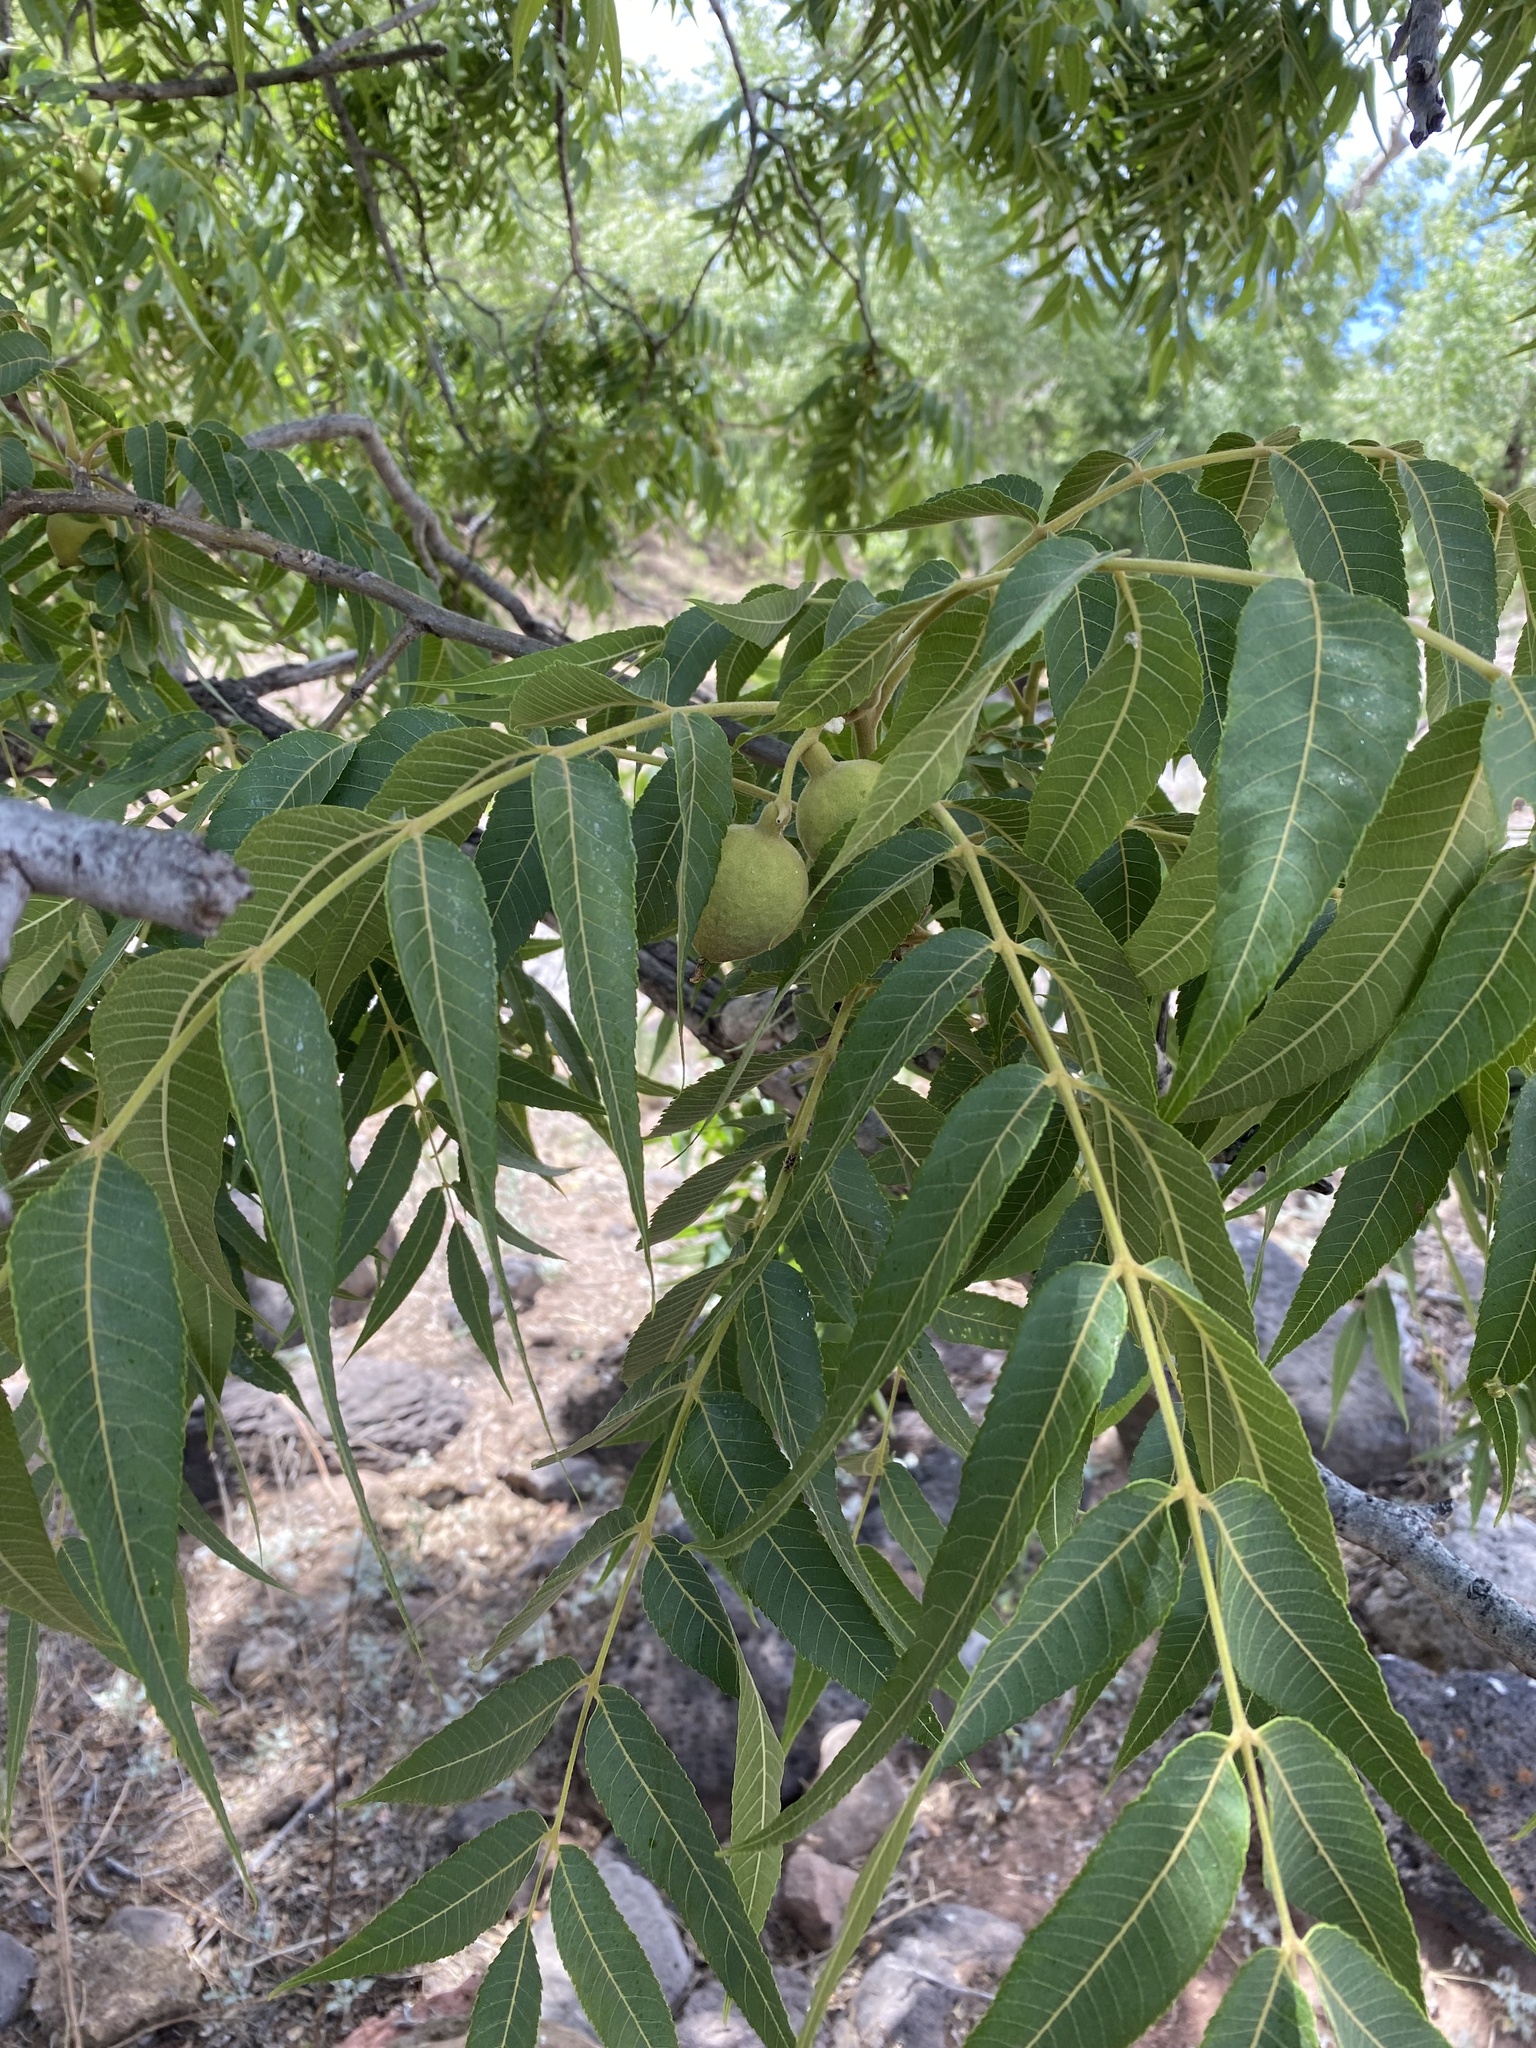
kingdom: Plantae
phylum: Tracheophyta
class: Magnoliopsida
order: Fagales
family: Juglandaceae
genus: Juglans
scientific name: Juglans major
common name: Arizona walnut
